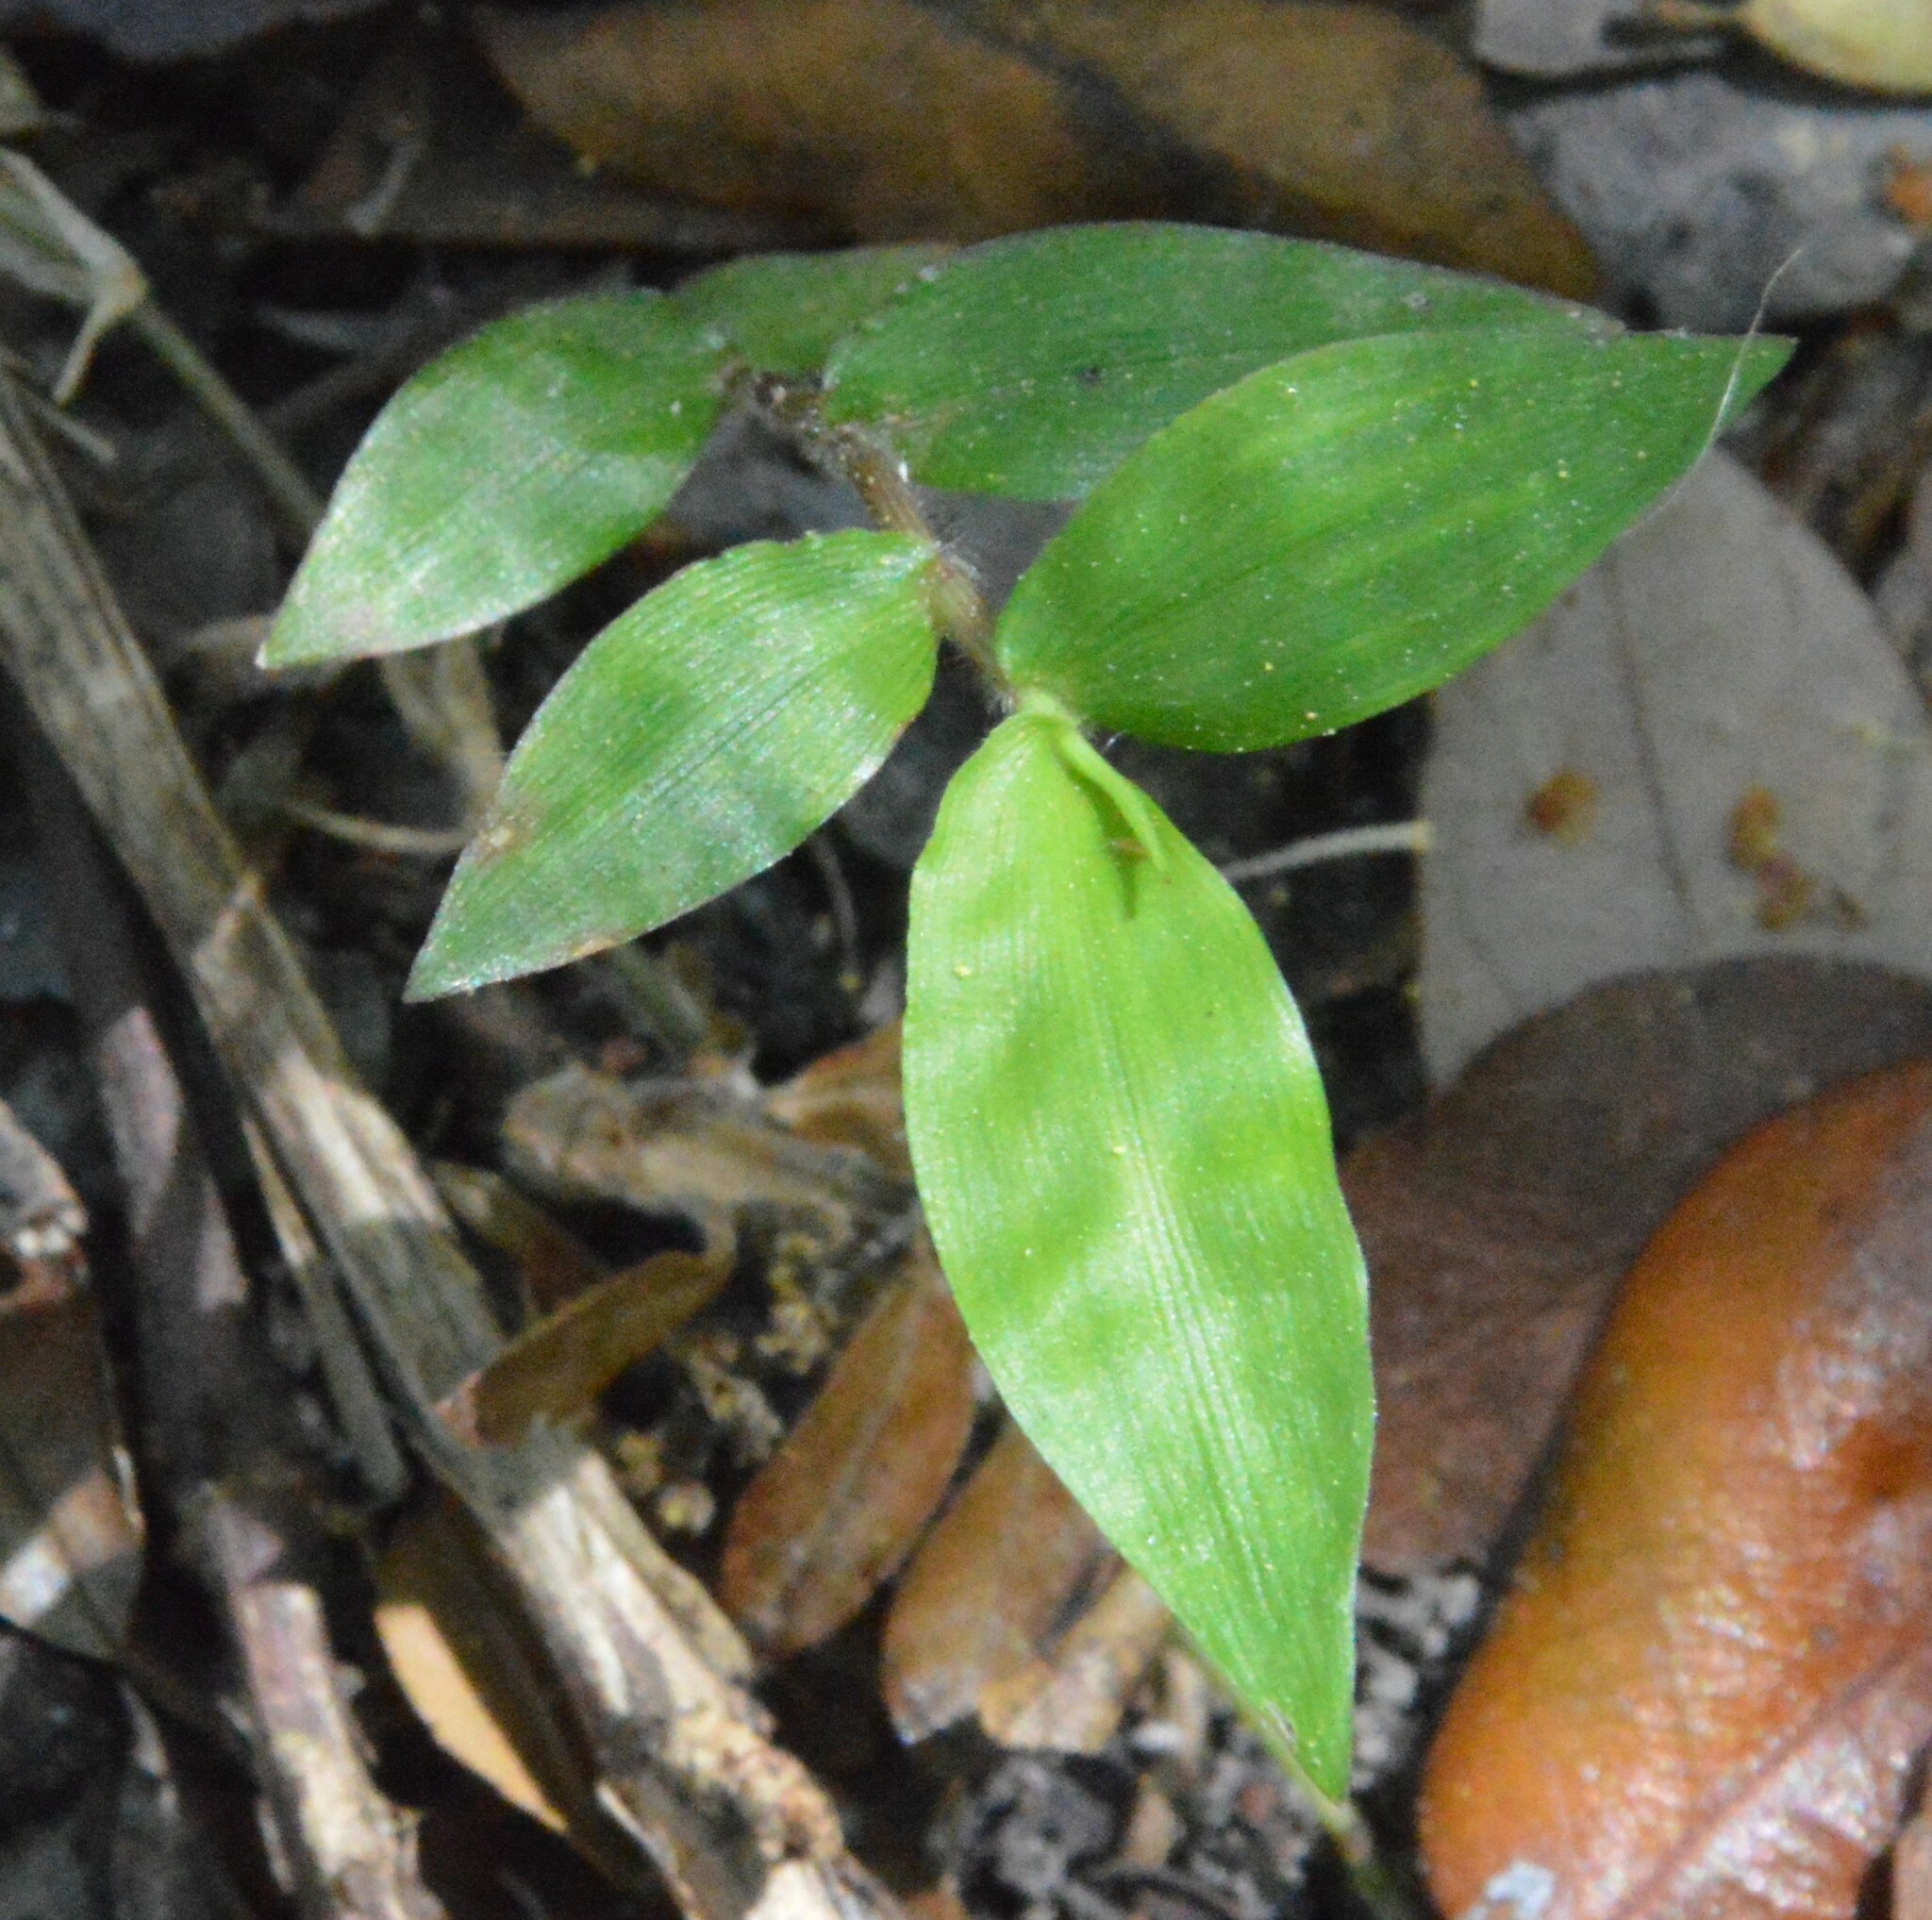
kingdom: Plantae
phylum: Tracheophyta
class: Liliopsida
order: Poales
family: Poaceae
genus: Oplismenus
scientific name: Oplismenus hirtellus
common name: Basketgrass
